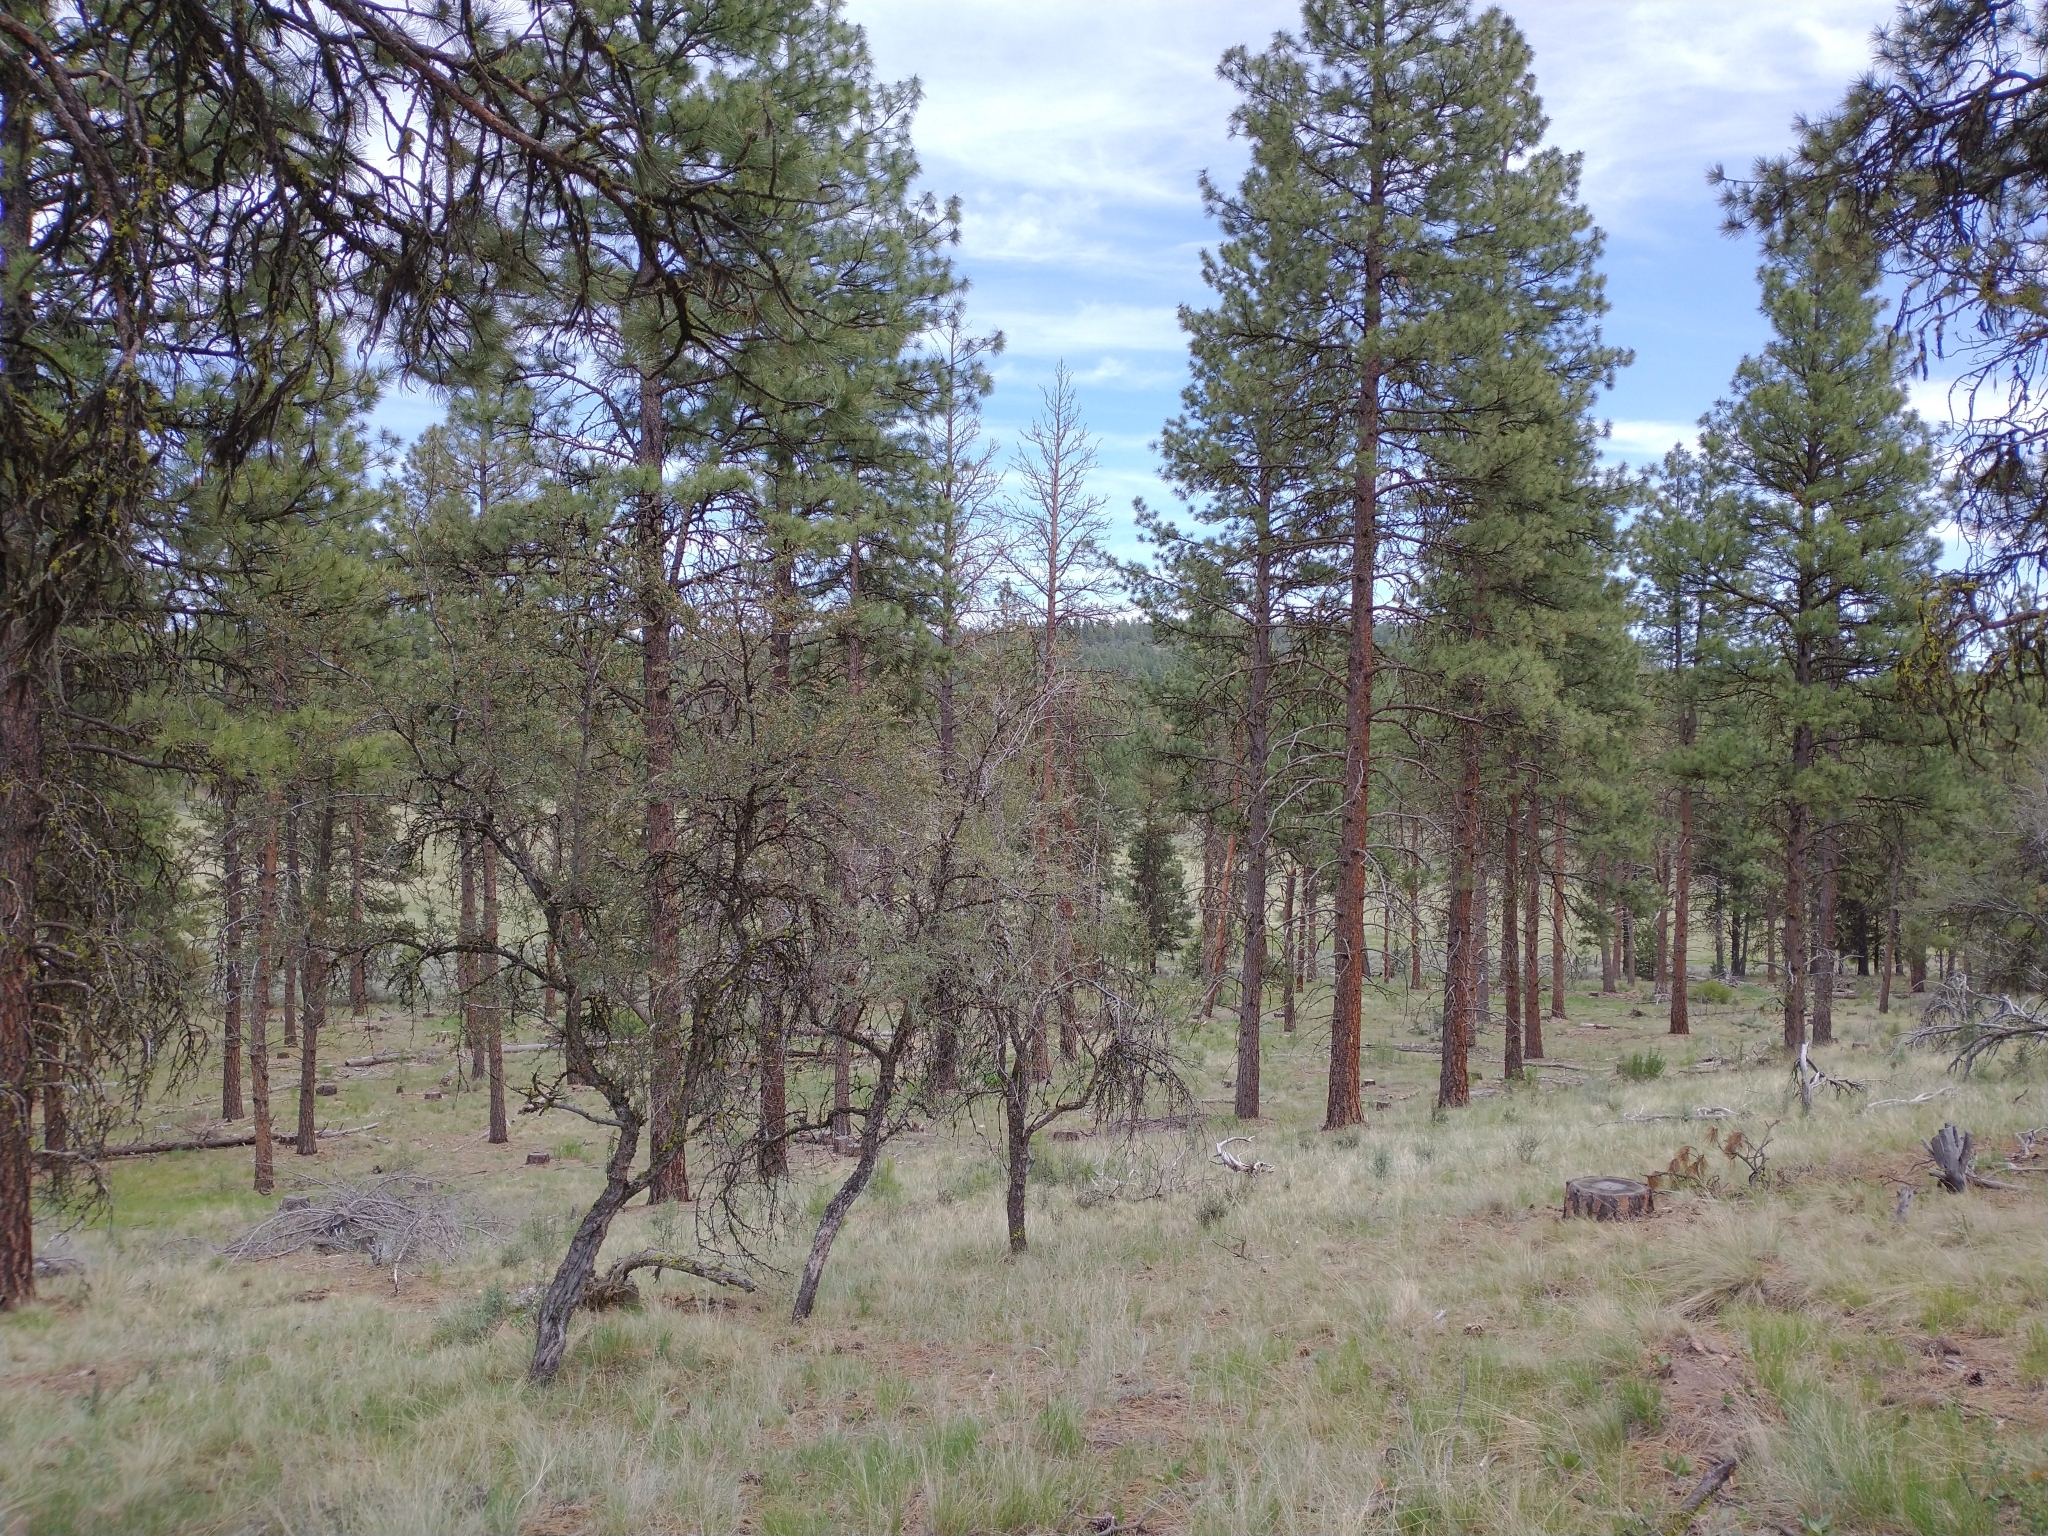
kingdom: Plantae
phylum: Tracheophyta
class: Magnoliopsida
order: Rosales
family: Rosaceae
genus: Cercocarpus
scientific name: Cercocarpus ledifolius
